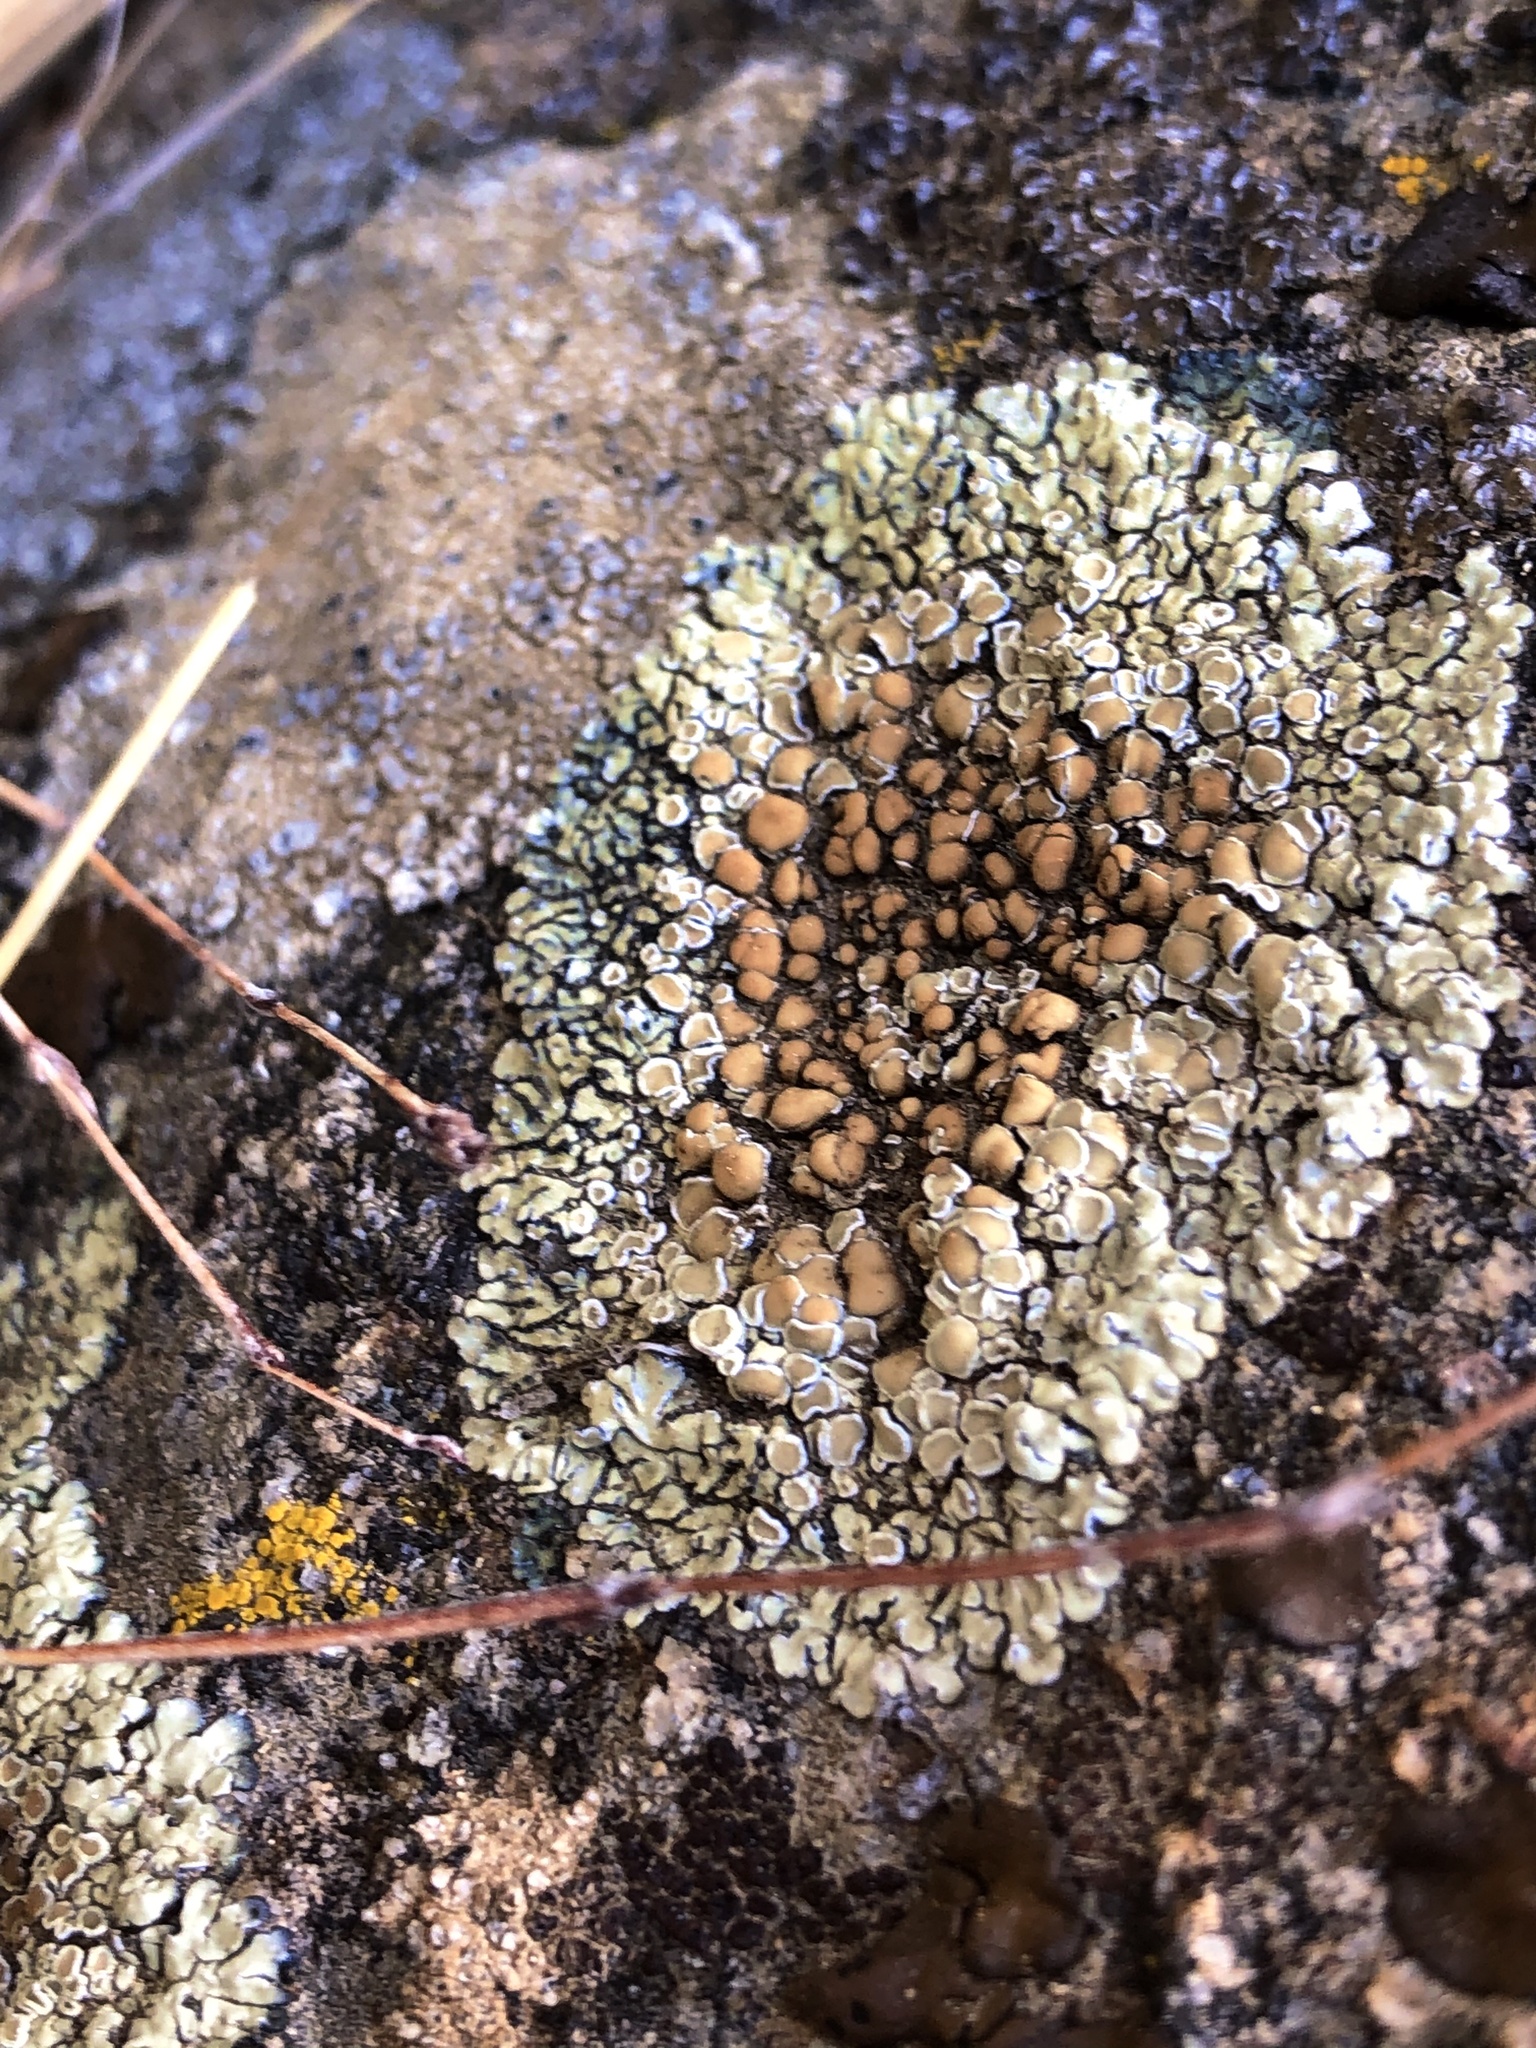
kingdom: Fungi
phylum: Ascomycota
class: Lecanoromycetes
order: Lecanorales
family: Lecanoraceae
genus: Protoparmeliopsis
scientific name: Protoparmeliopsis muralis
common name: Stonewall rim lichen
